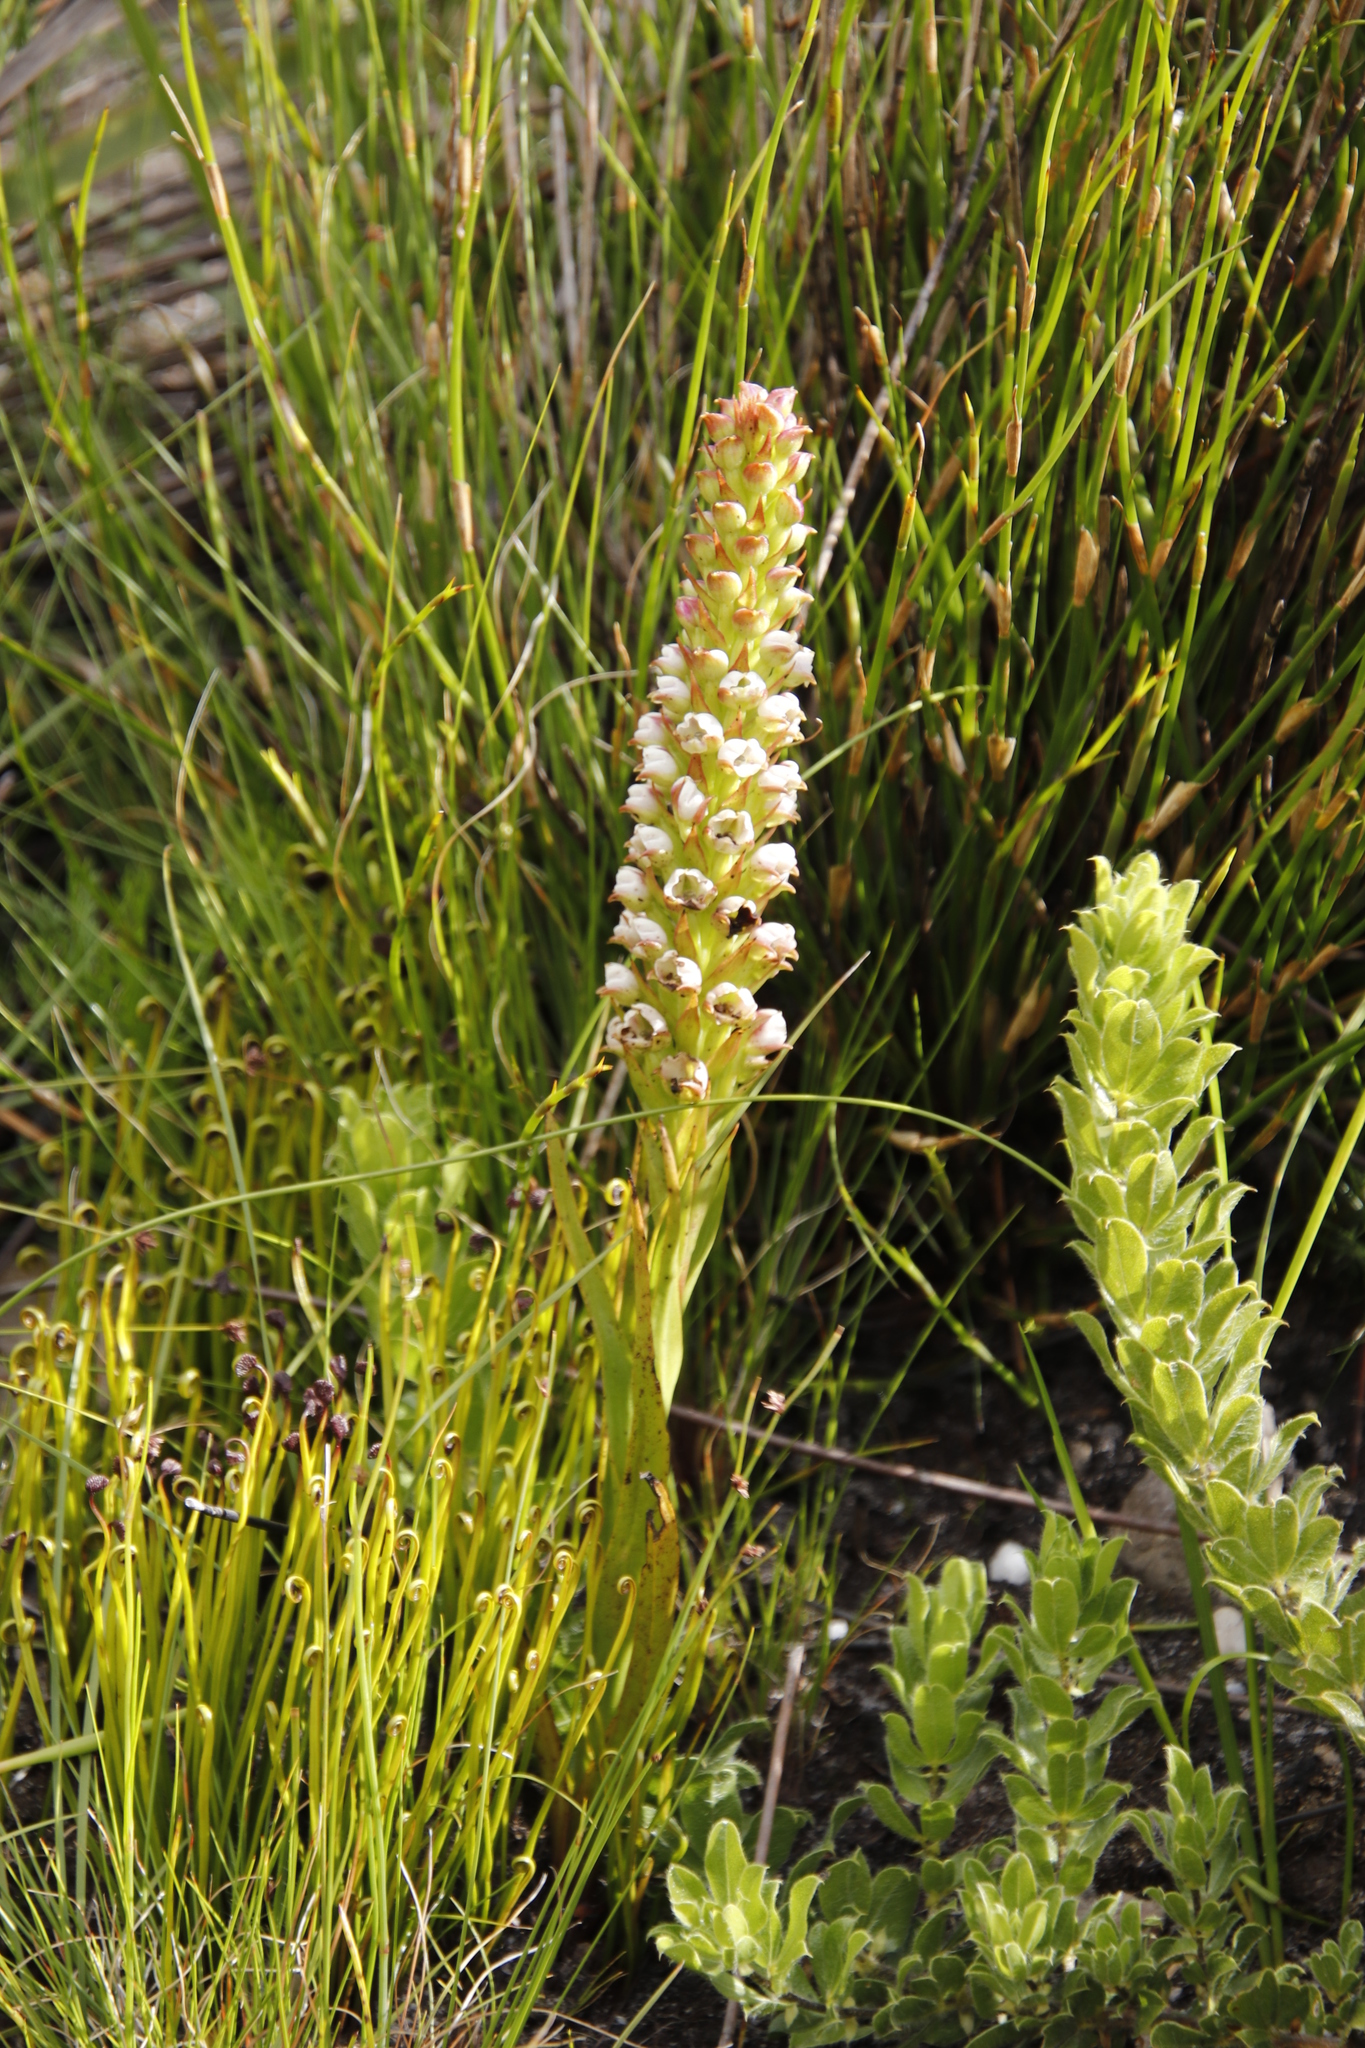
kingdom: Plantae
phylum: Tracheophyta
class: Liliopsida
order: Asparagales
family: Orchidaceae
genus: Evotella
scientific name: Evotella carnosa
